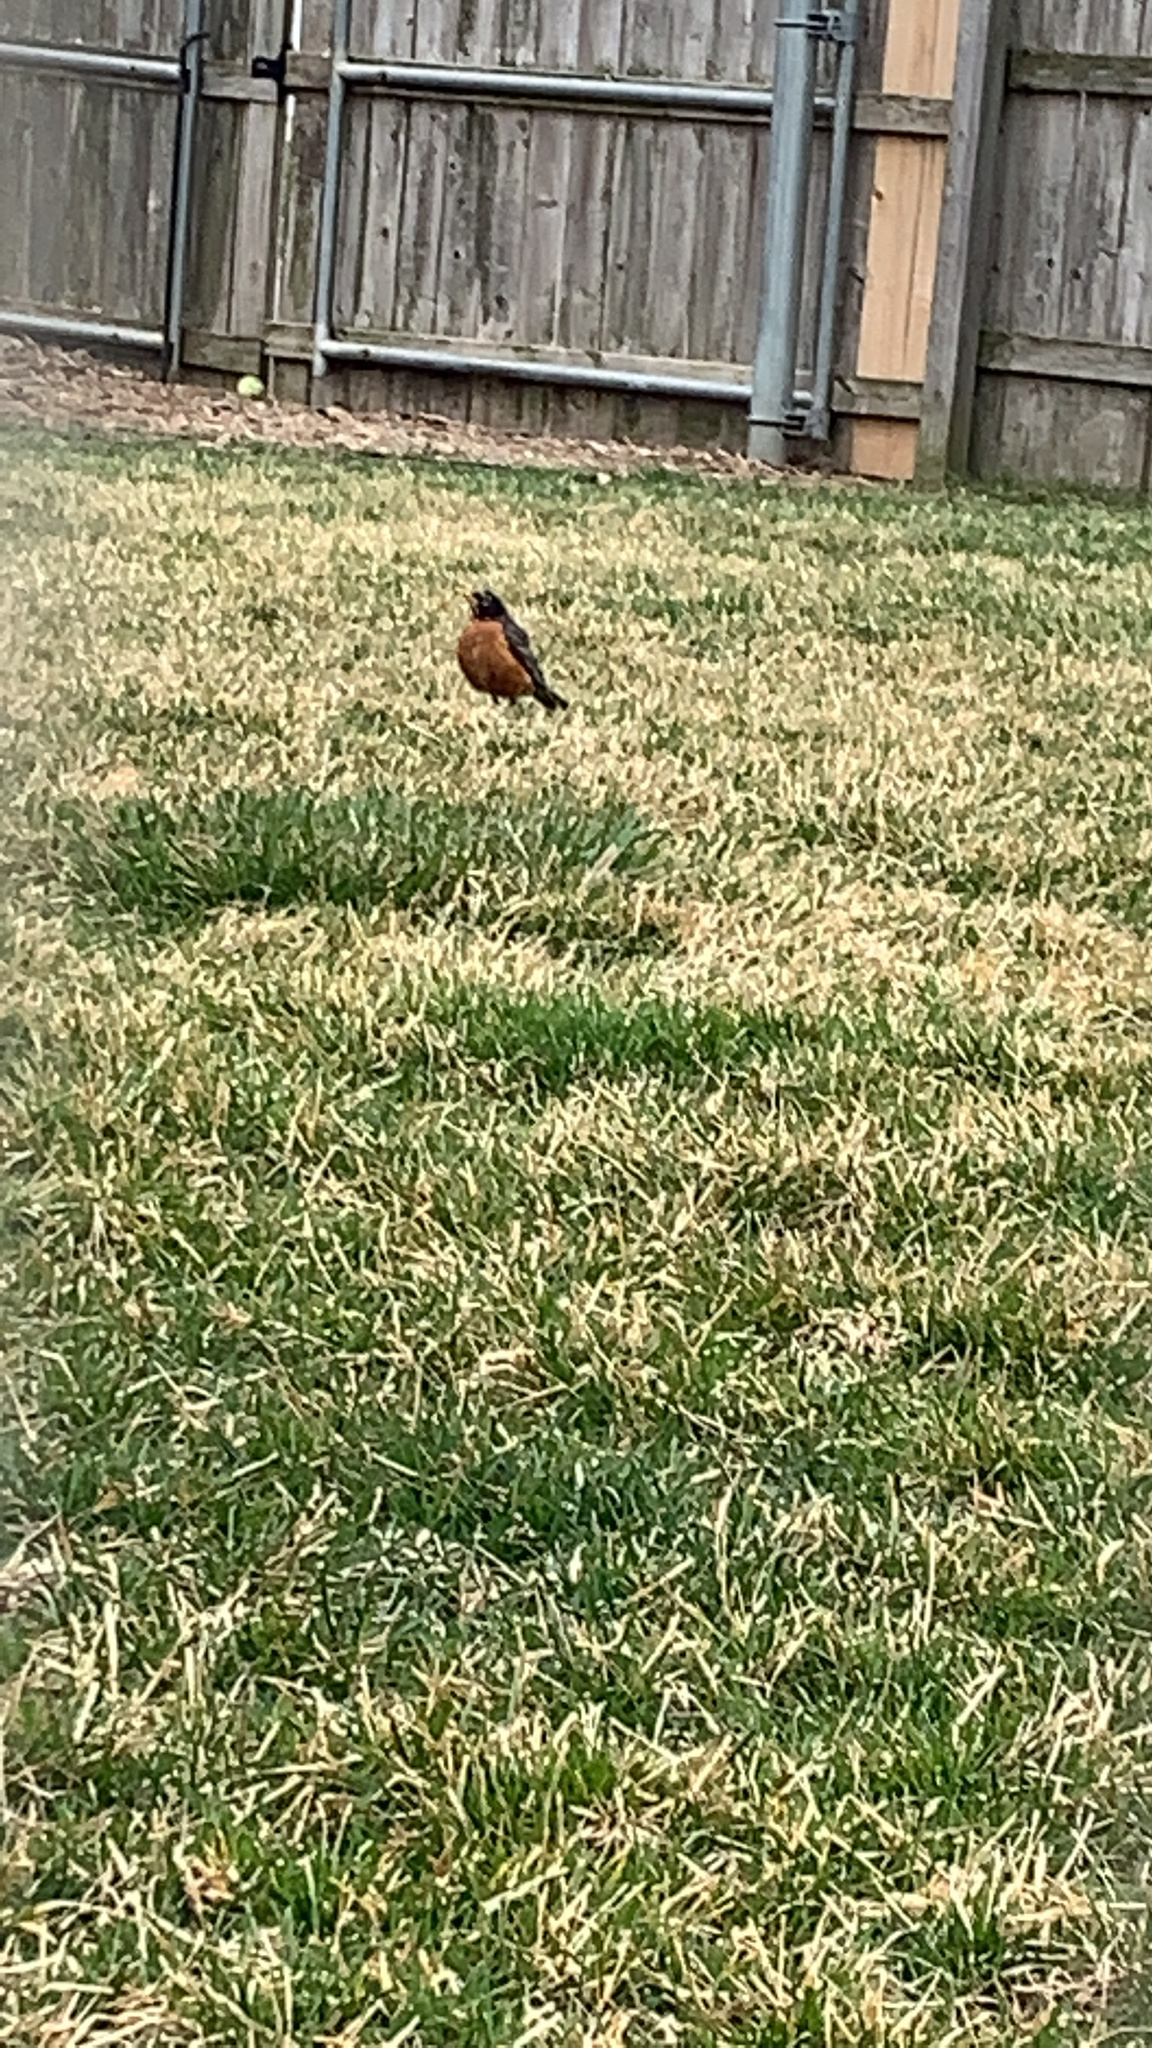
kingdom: Animalia
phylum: Chordata
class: Aves
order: Passeriformes
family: Turdidae
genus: Turdus
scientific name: Turdus migratorius
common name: American robin
